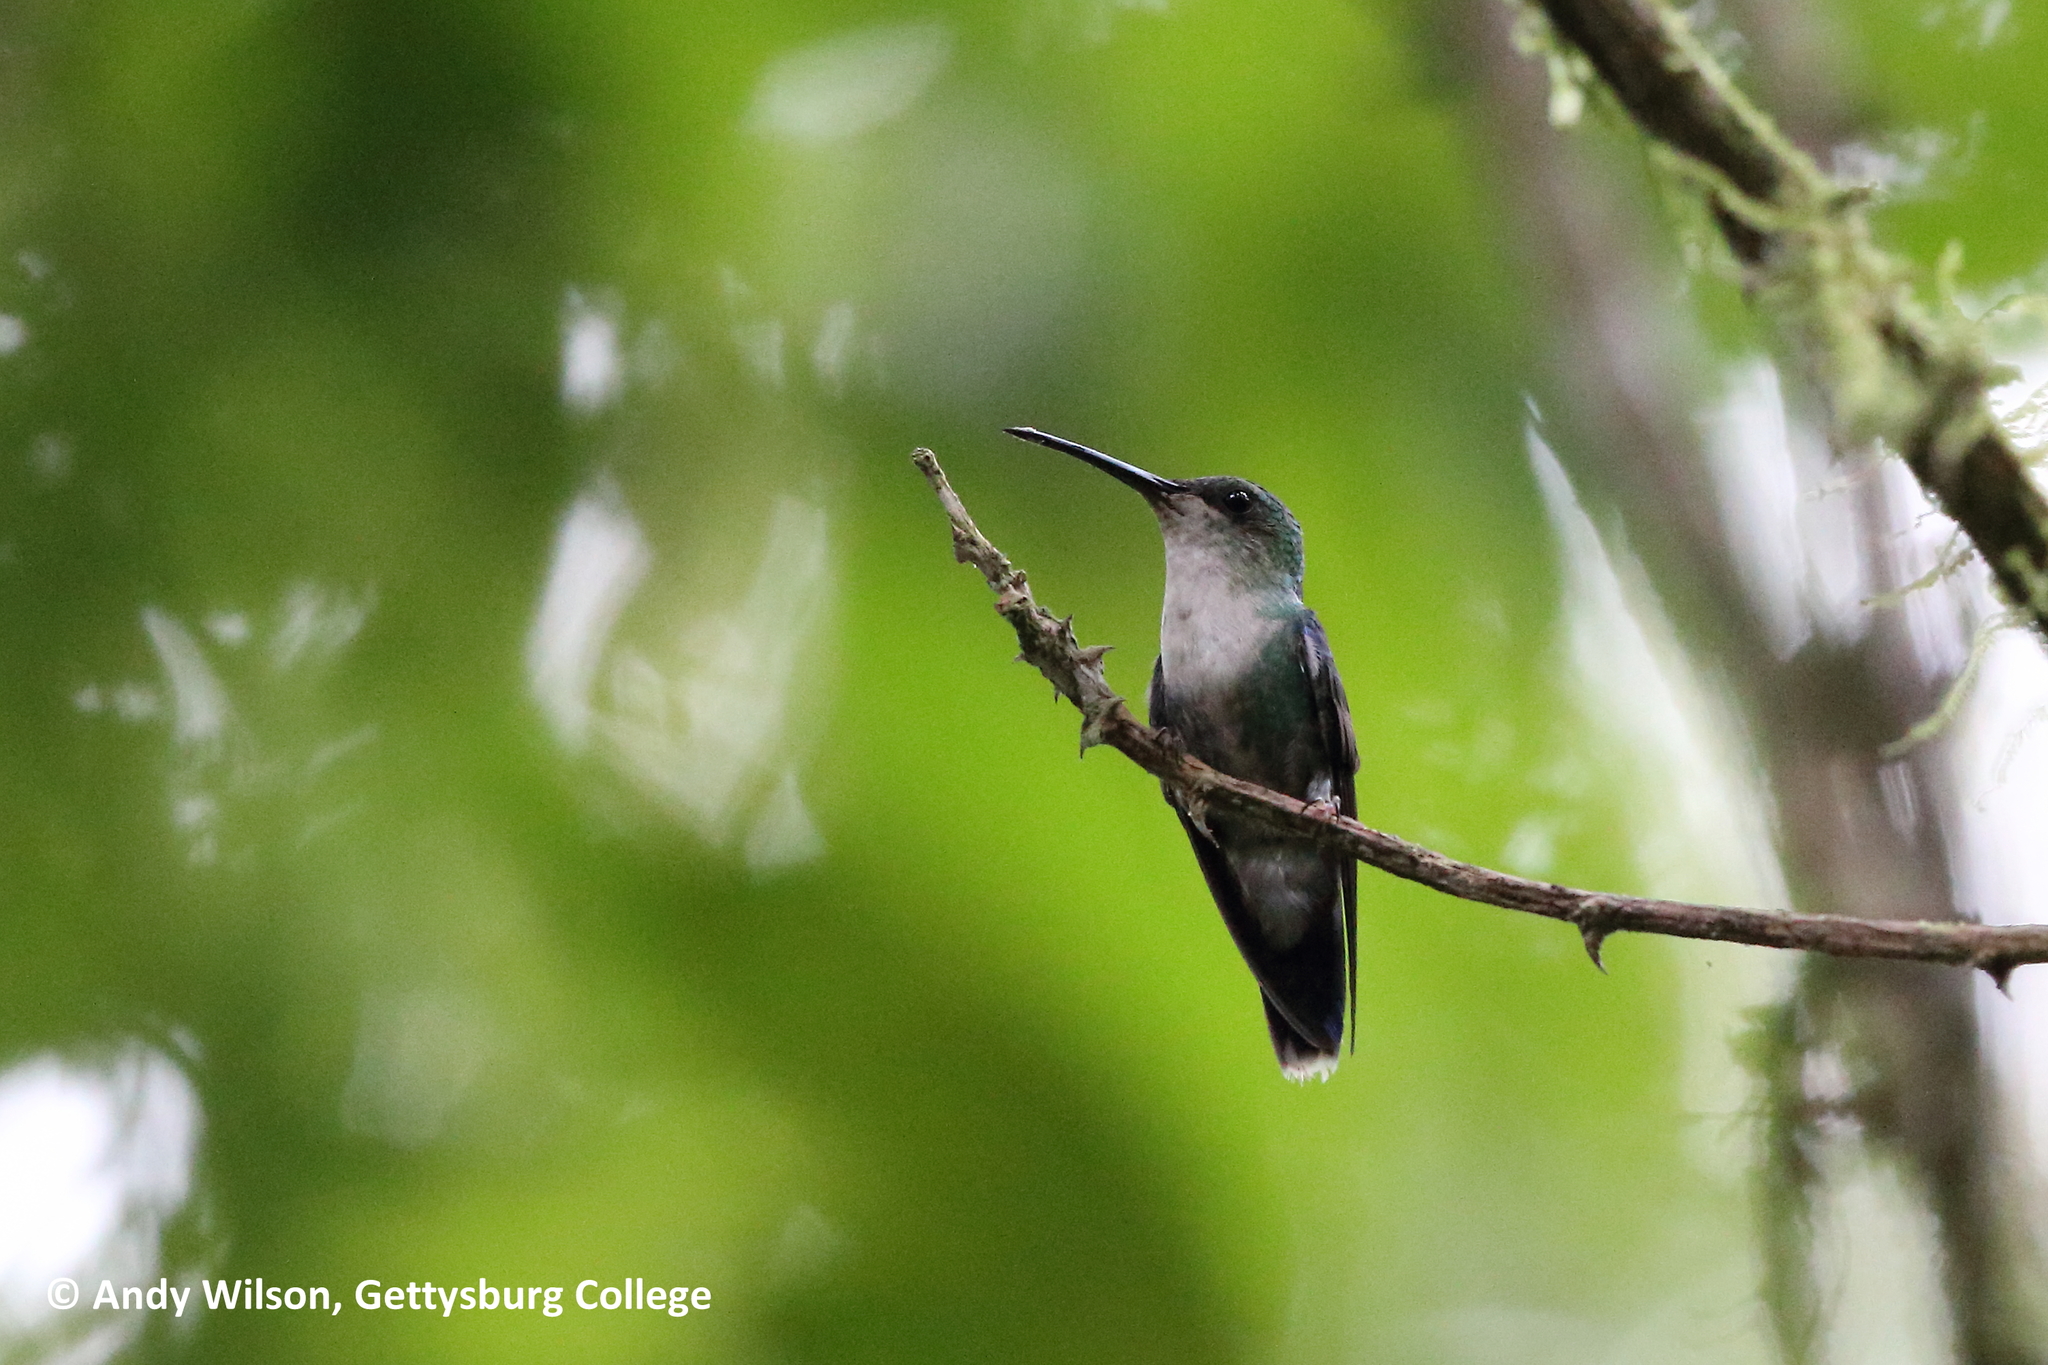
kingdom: Animalia
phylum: Chordata
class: Aves
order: Apodiformes
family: Trochilidae
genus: Thalurania
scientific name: Thalurania colombica
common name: Crowned woodnymph
